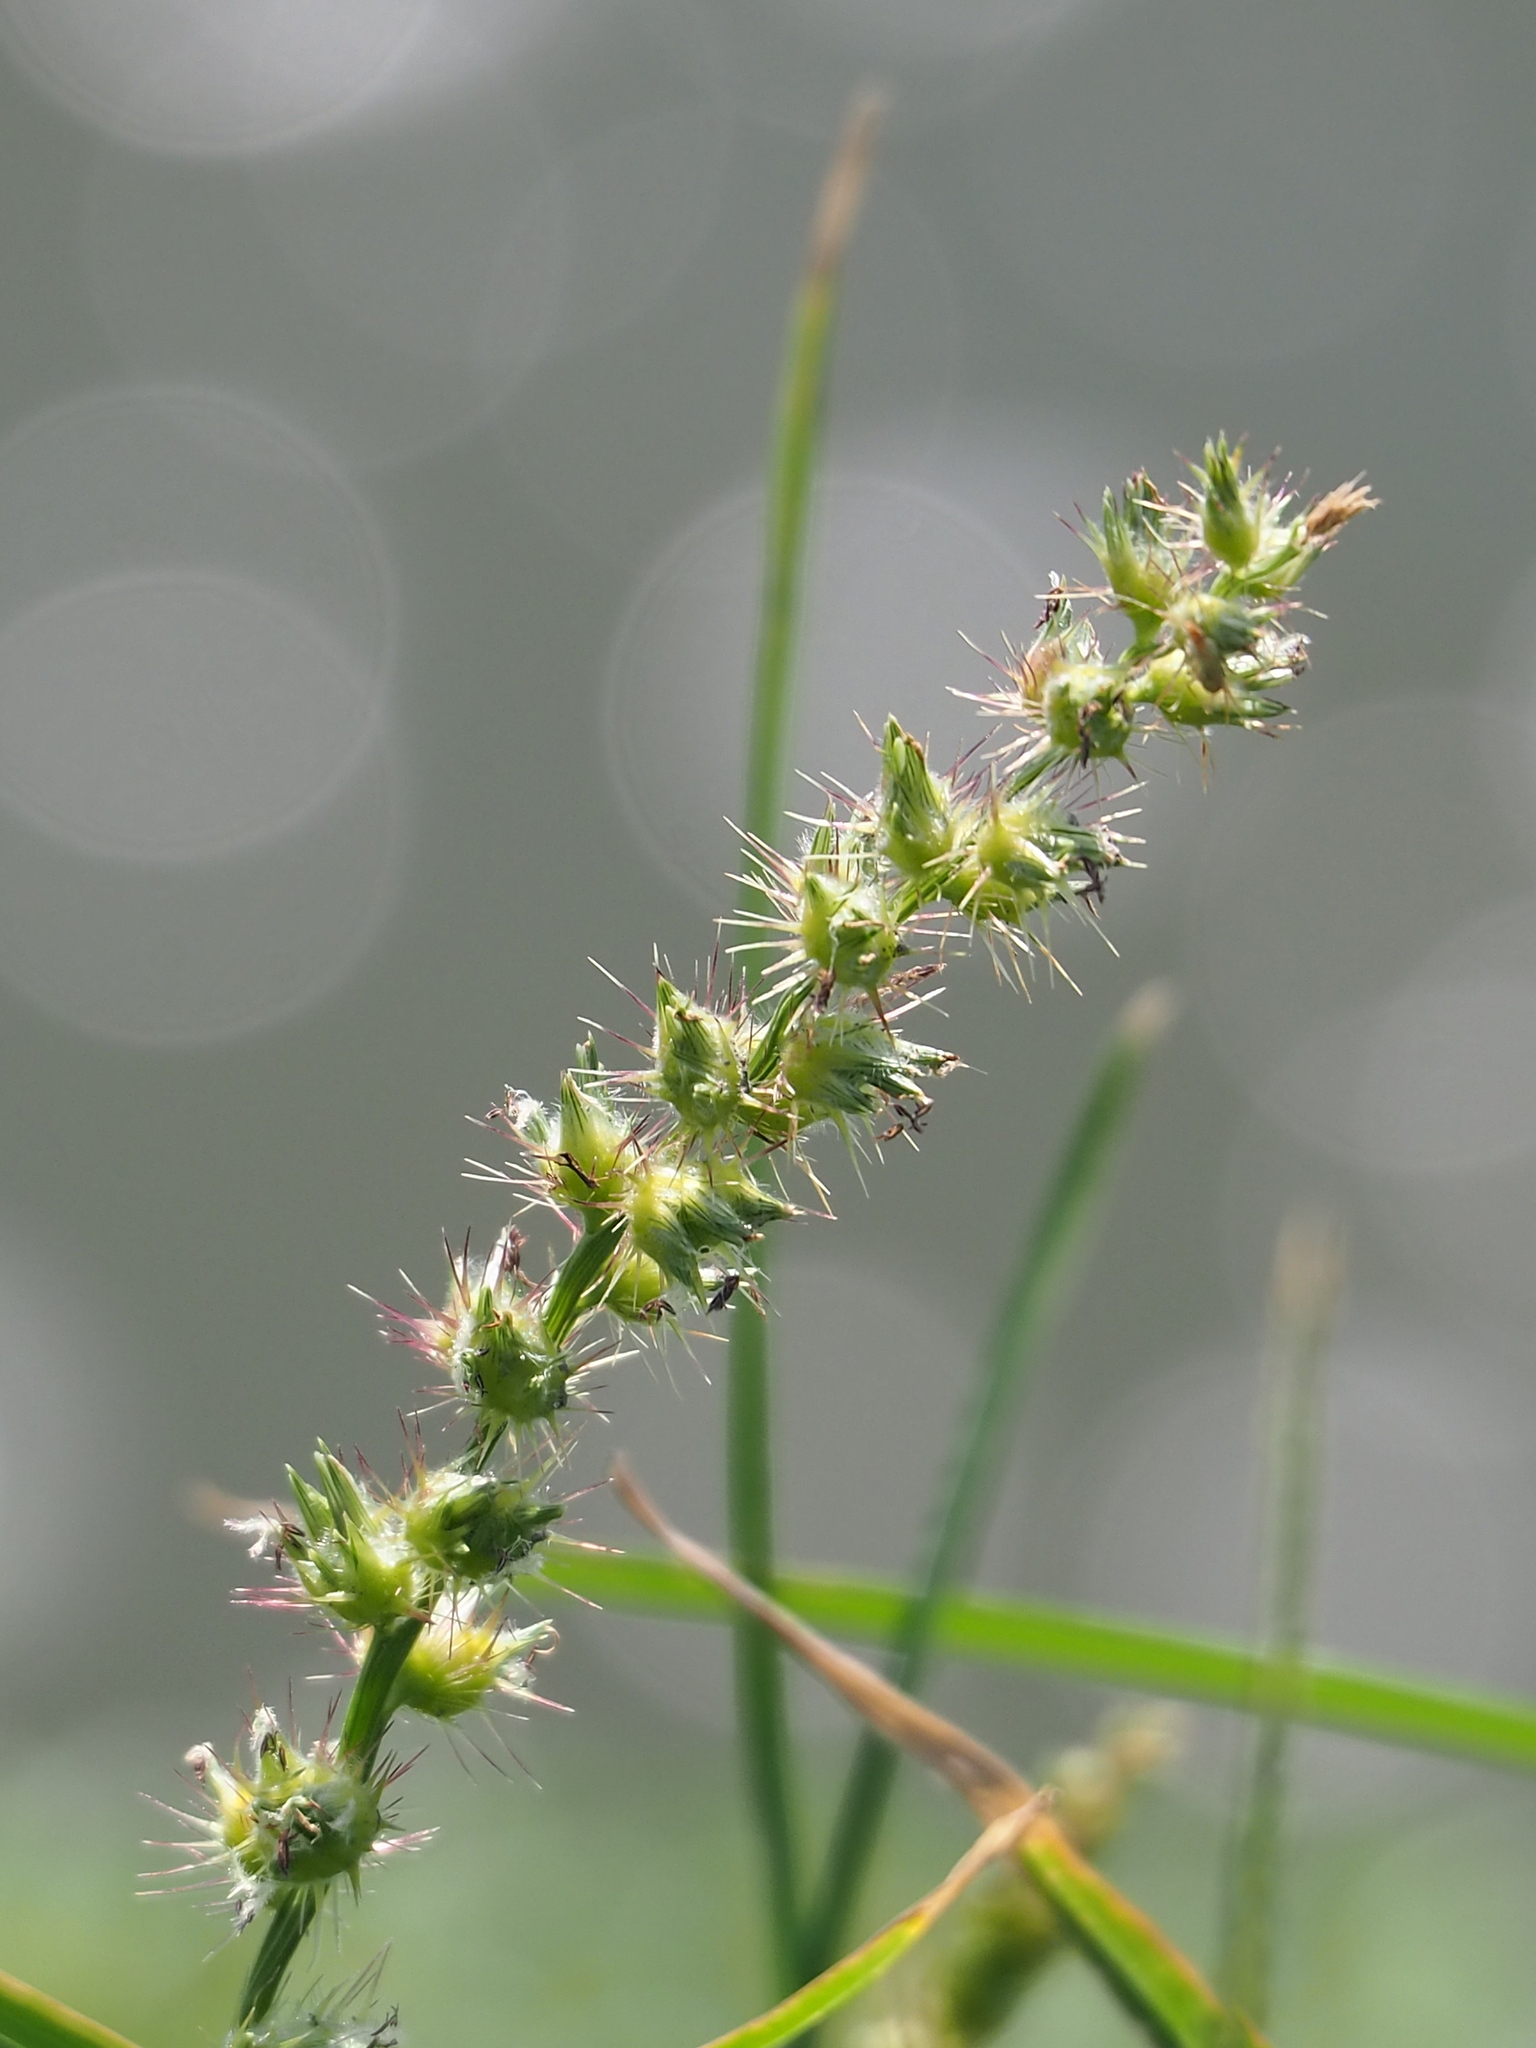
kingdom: Plantae
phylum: Tracheophyta
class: Liliopsida
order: Poales
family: Poaceae
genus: Cenchrus
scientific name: Cenchrus echinatus
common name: Southern sandbur
